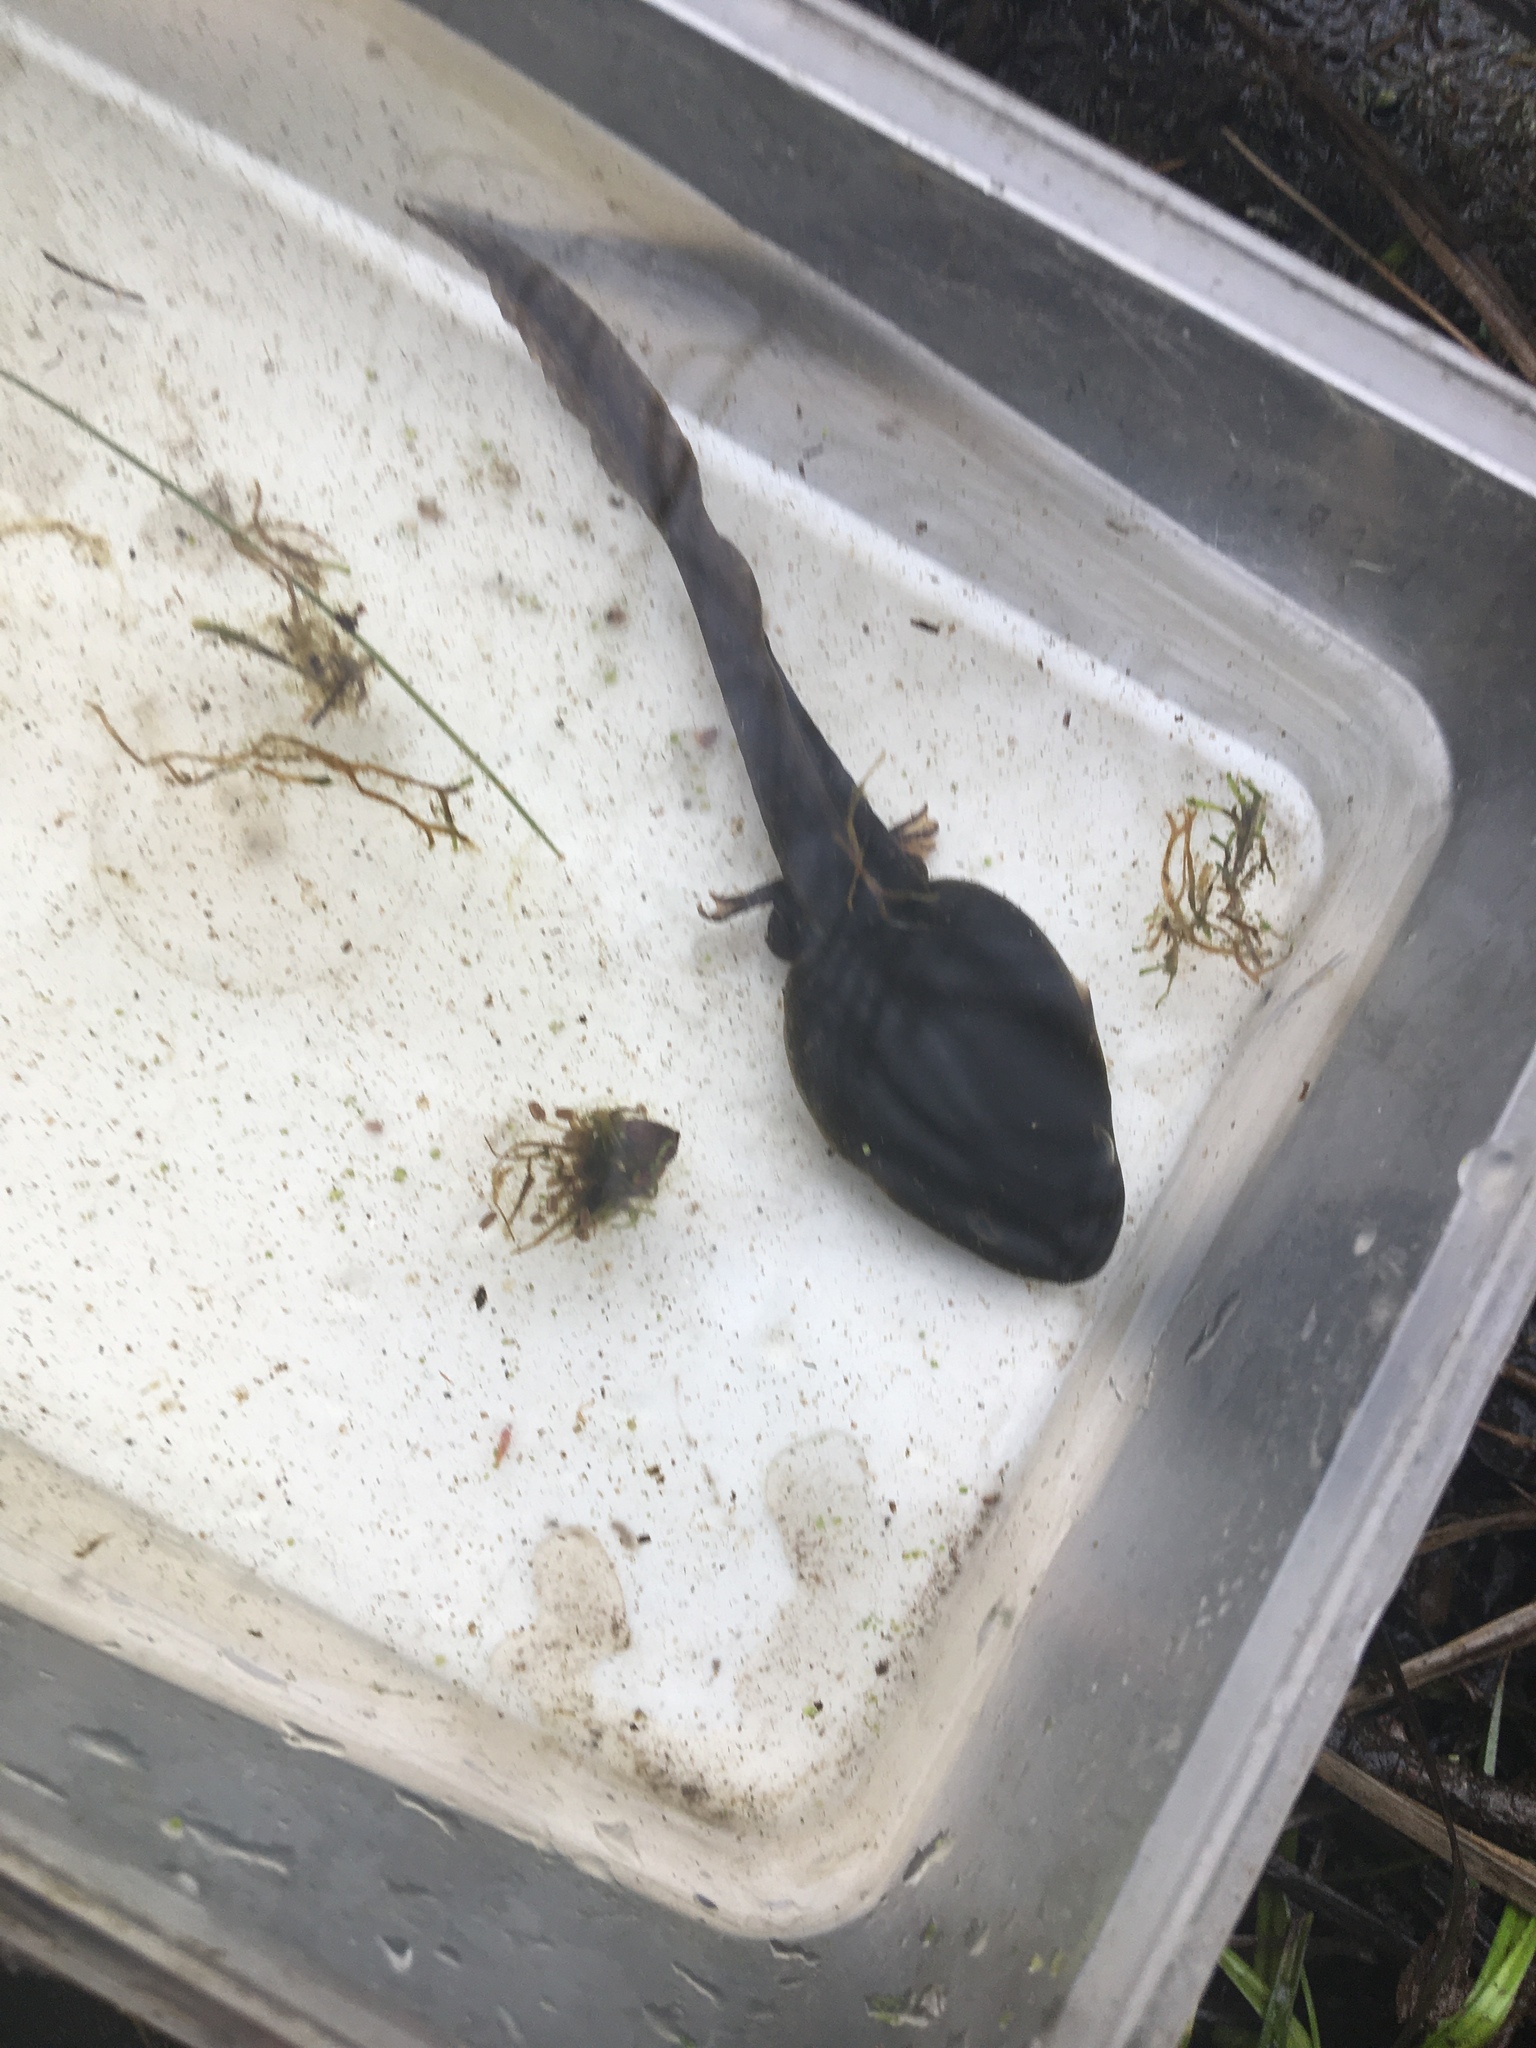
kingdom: Animalia
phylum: Chordata
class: Amphibia
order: Anura
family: Ranidae
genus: Lithobates
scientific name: Lithobates catesbeianus
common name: American bullfrog
